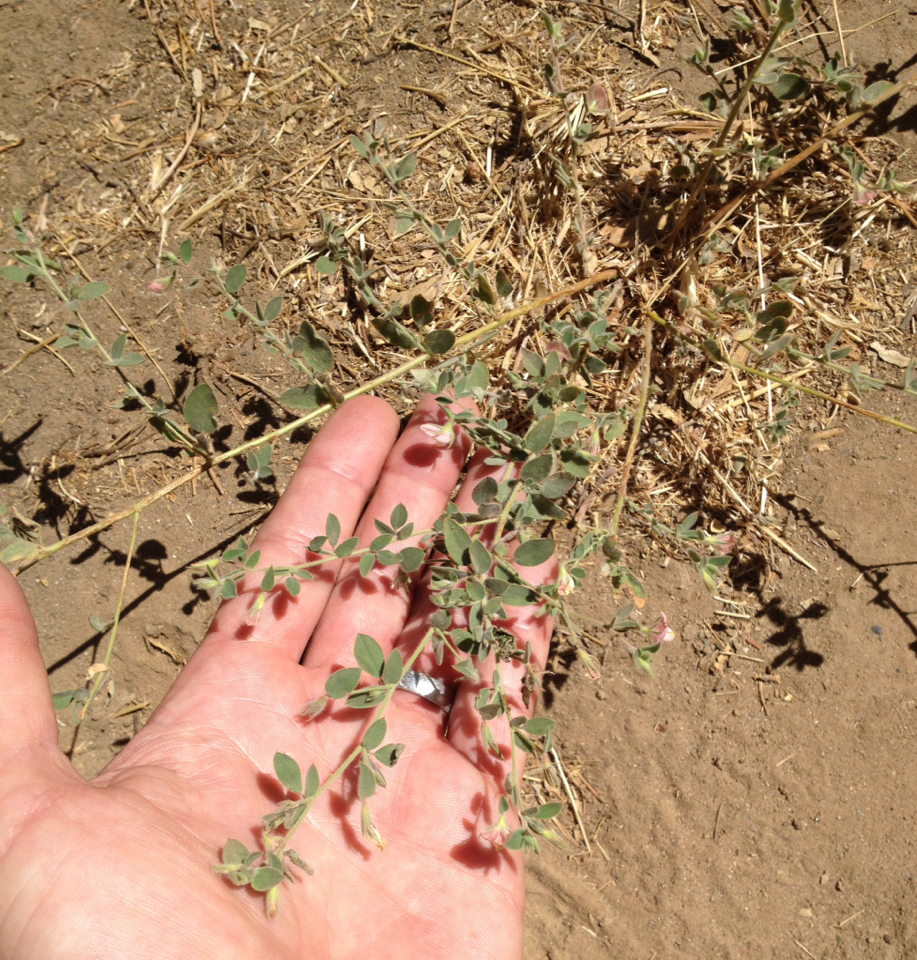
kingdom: Plantae
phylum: Tracheophyta
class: Magnoliopsida
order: Fabales
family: Fabaceae
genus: Acmispon
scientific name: Acmispon americanus
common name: American bird's-foot trefoil
